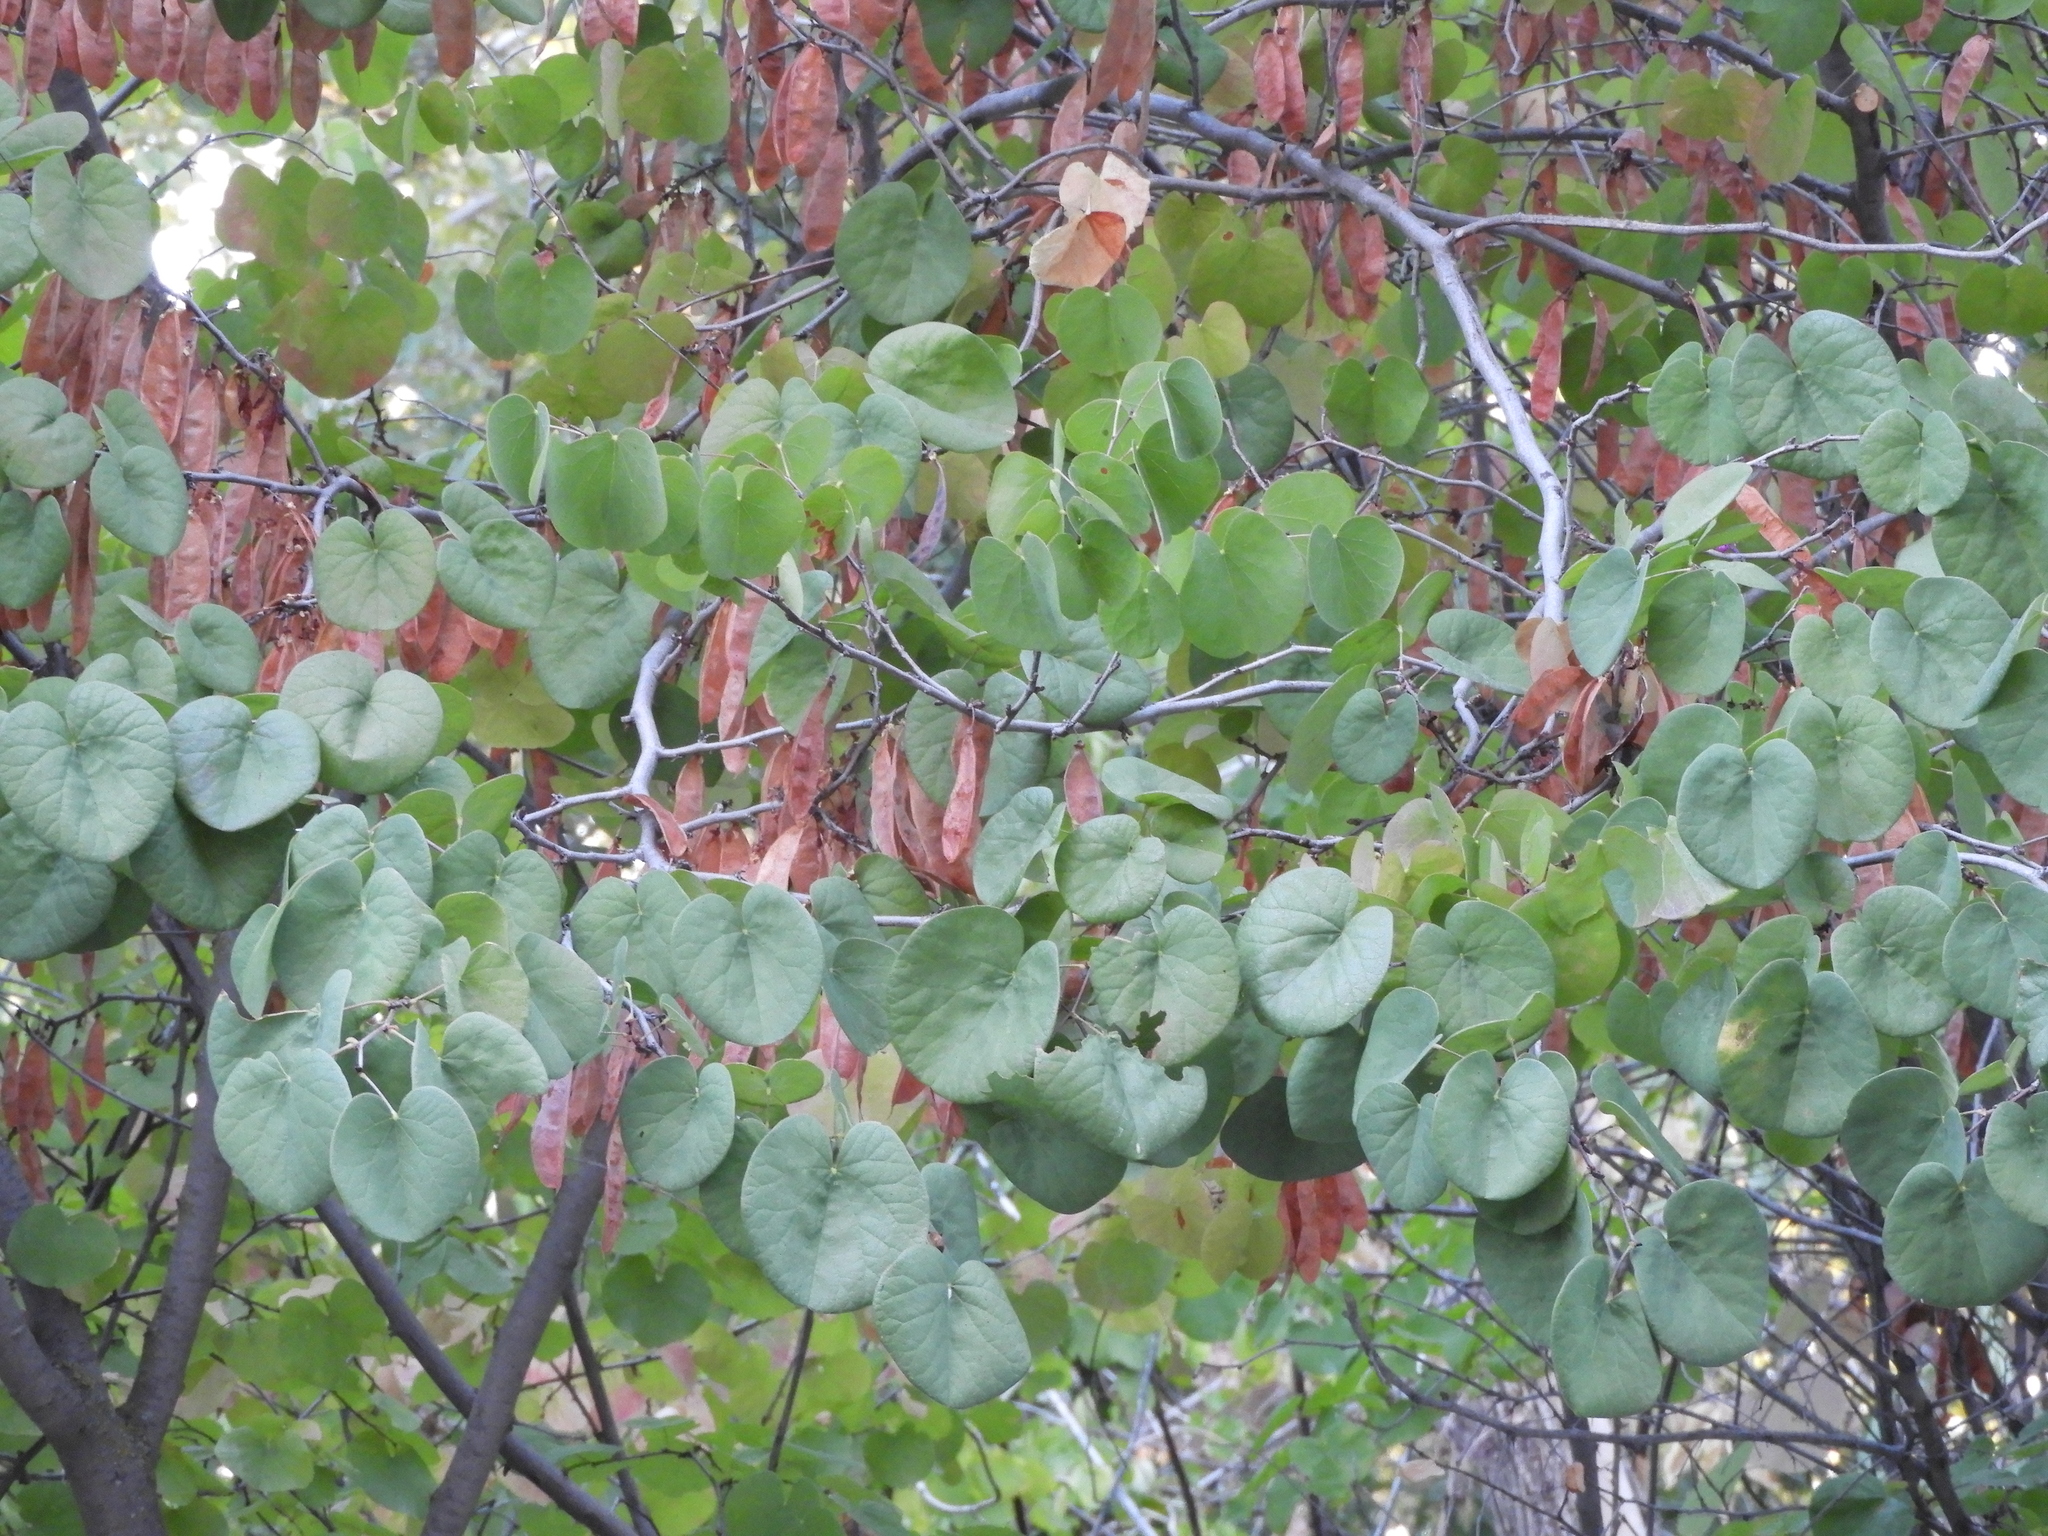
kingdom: Plantae
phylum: Tracheophyta
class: Magnoliopsida
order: Fabales
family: Fabaceae
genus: Cercis
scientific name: Cercis occidentalis
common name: California redbud
